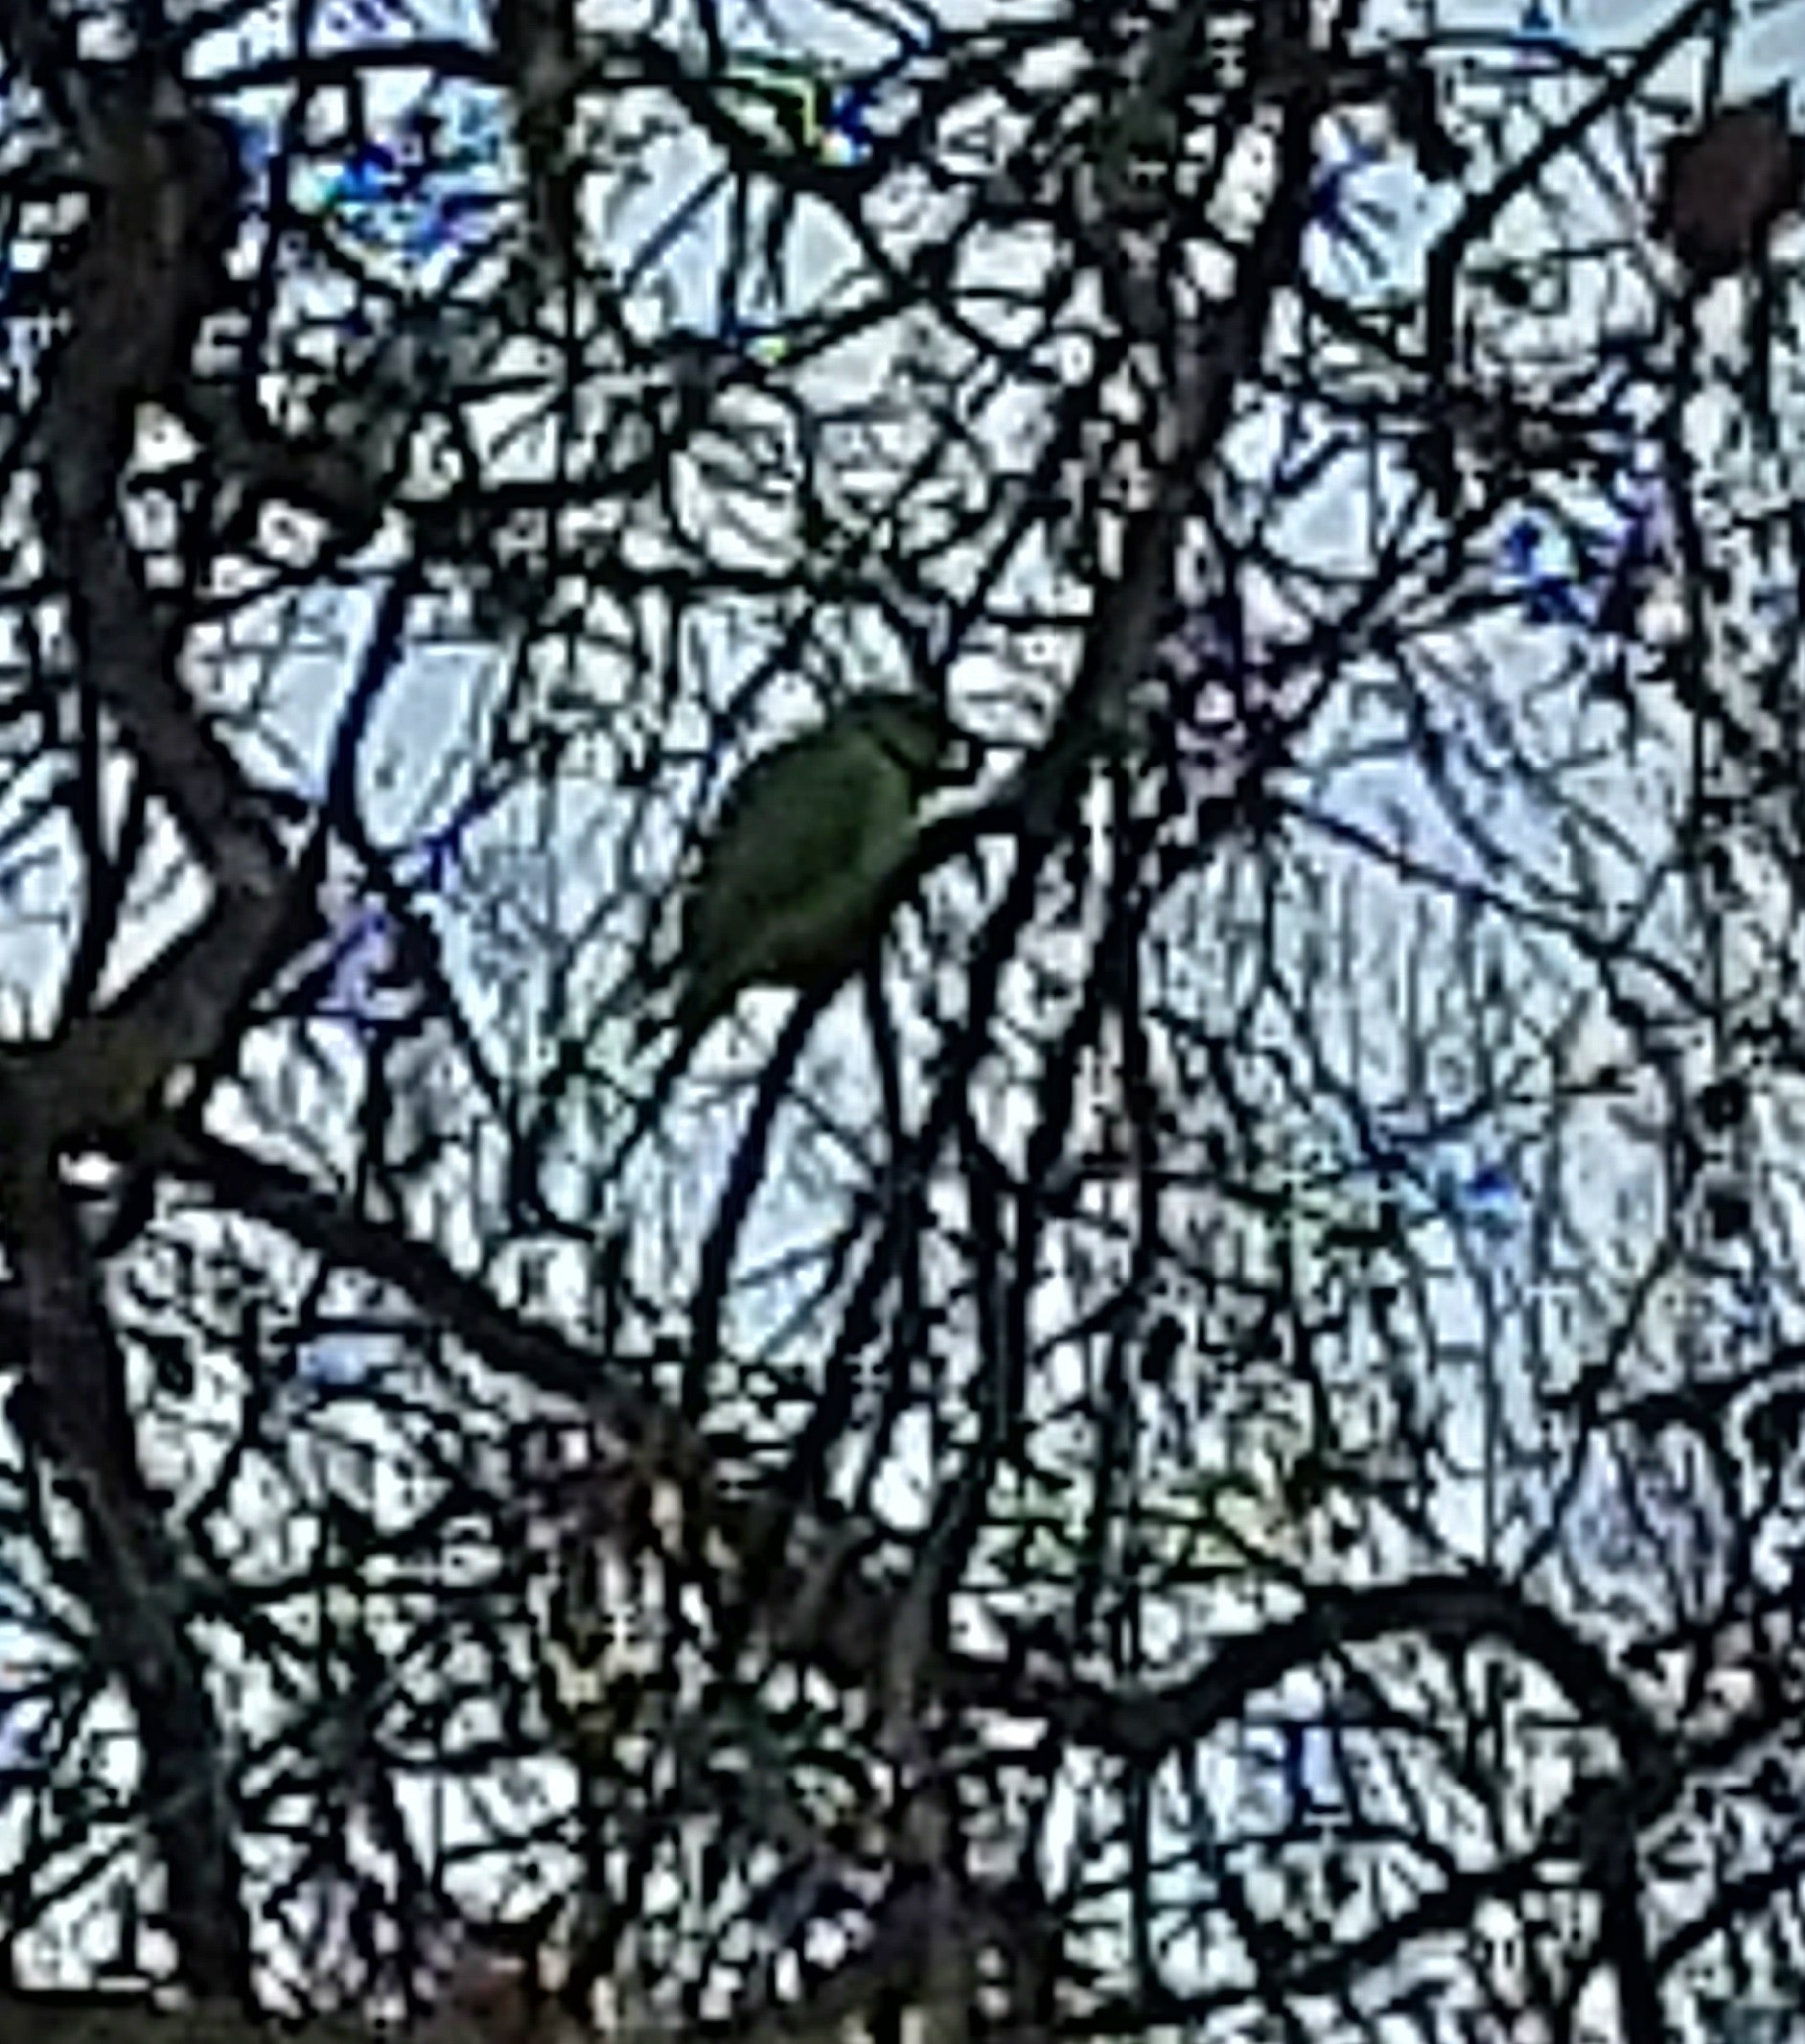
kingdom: Animalia
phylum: Chordata
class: Aves
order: Psittaciformes
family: Psittacidae
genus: Psittacula
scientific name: Psittacula krameri
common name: Rose-ringed parakeet
